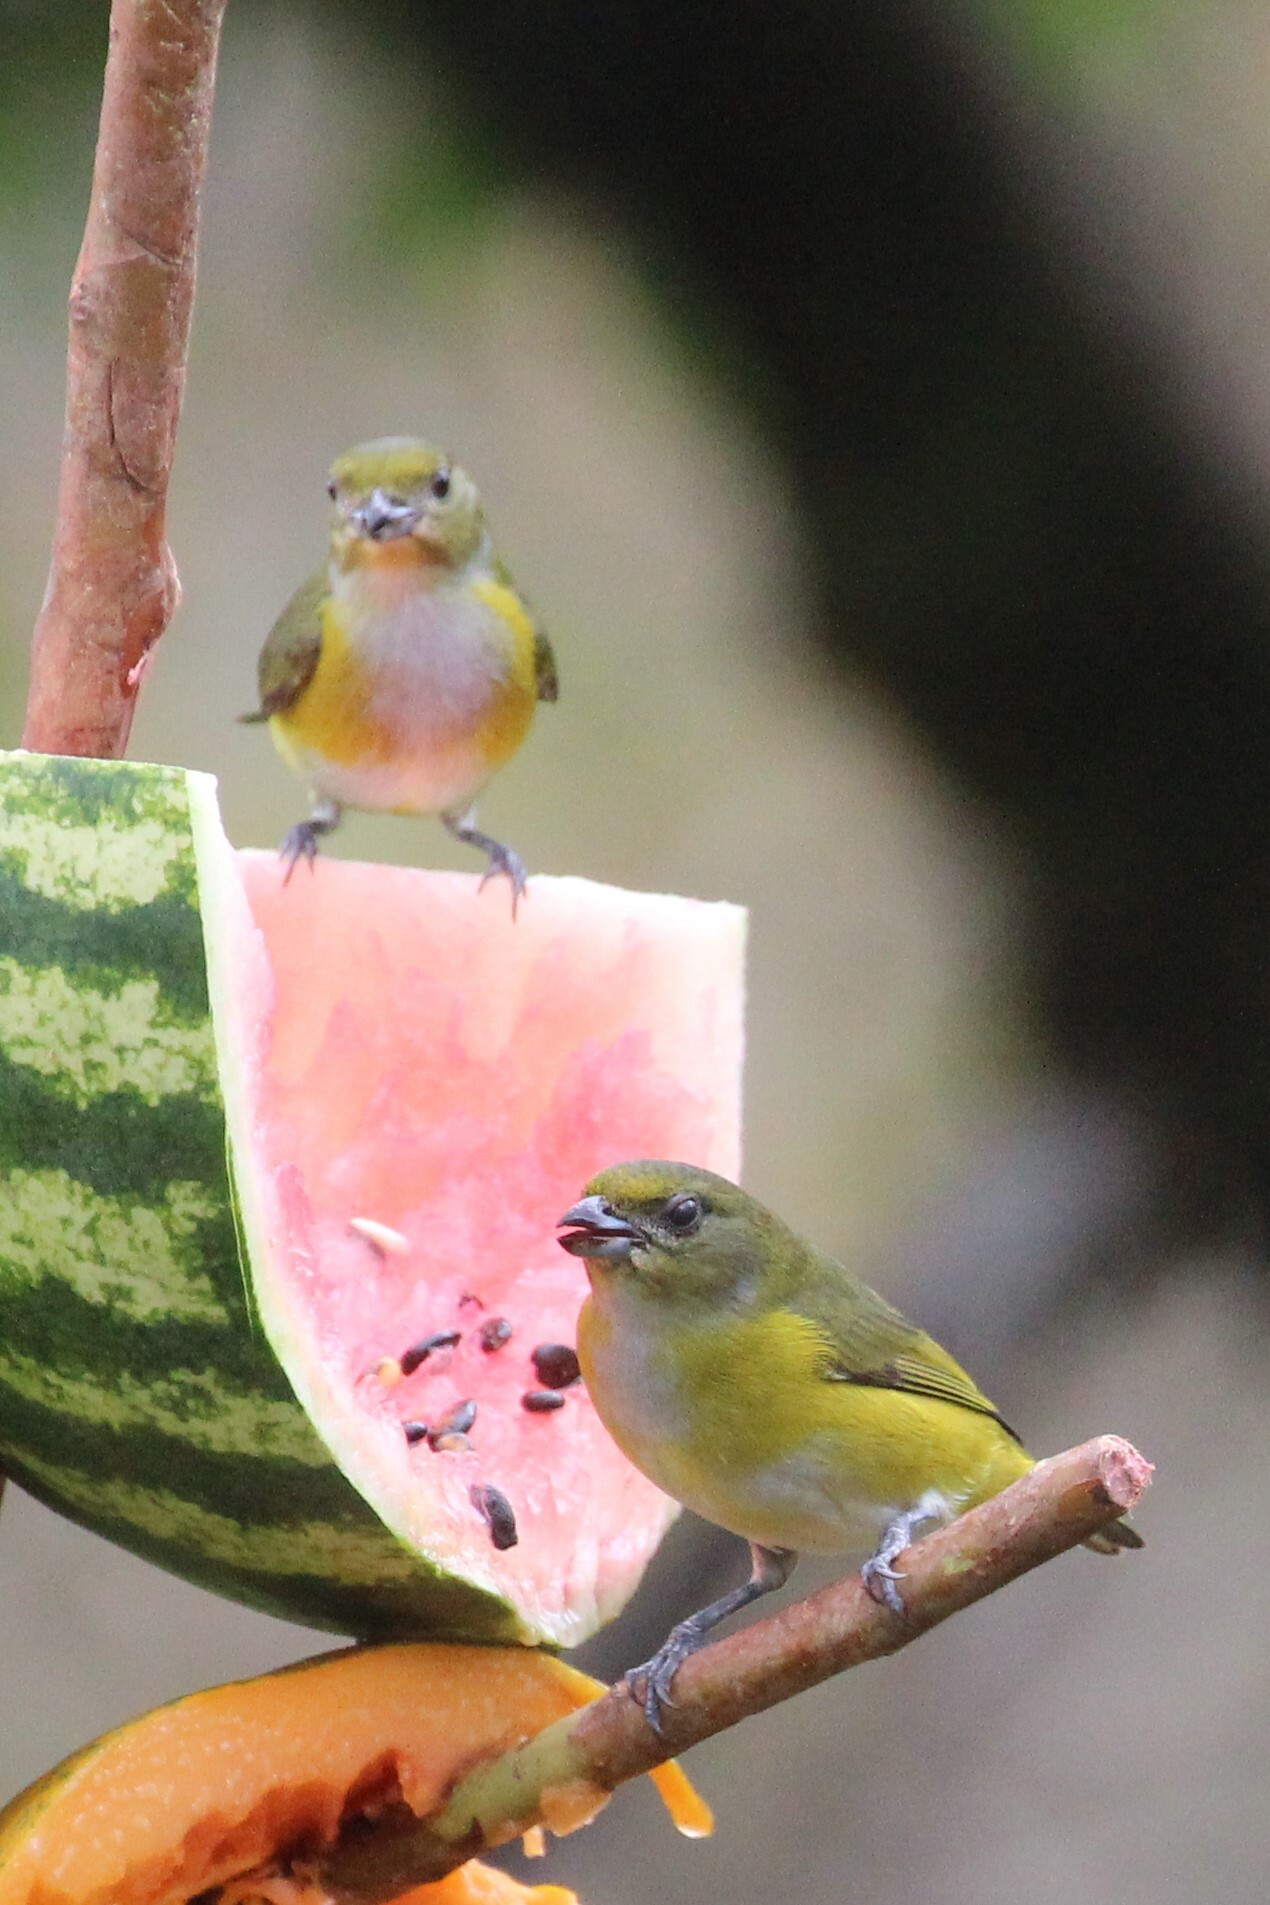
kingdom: Animalia
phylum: Chordata
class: Aves
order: Passeriformes
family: Fringillidae
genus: Euphonia
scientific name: Euphonia hirundinacea
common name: Yellow-throated euphonia
